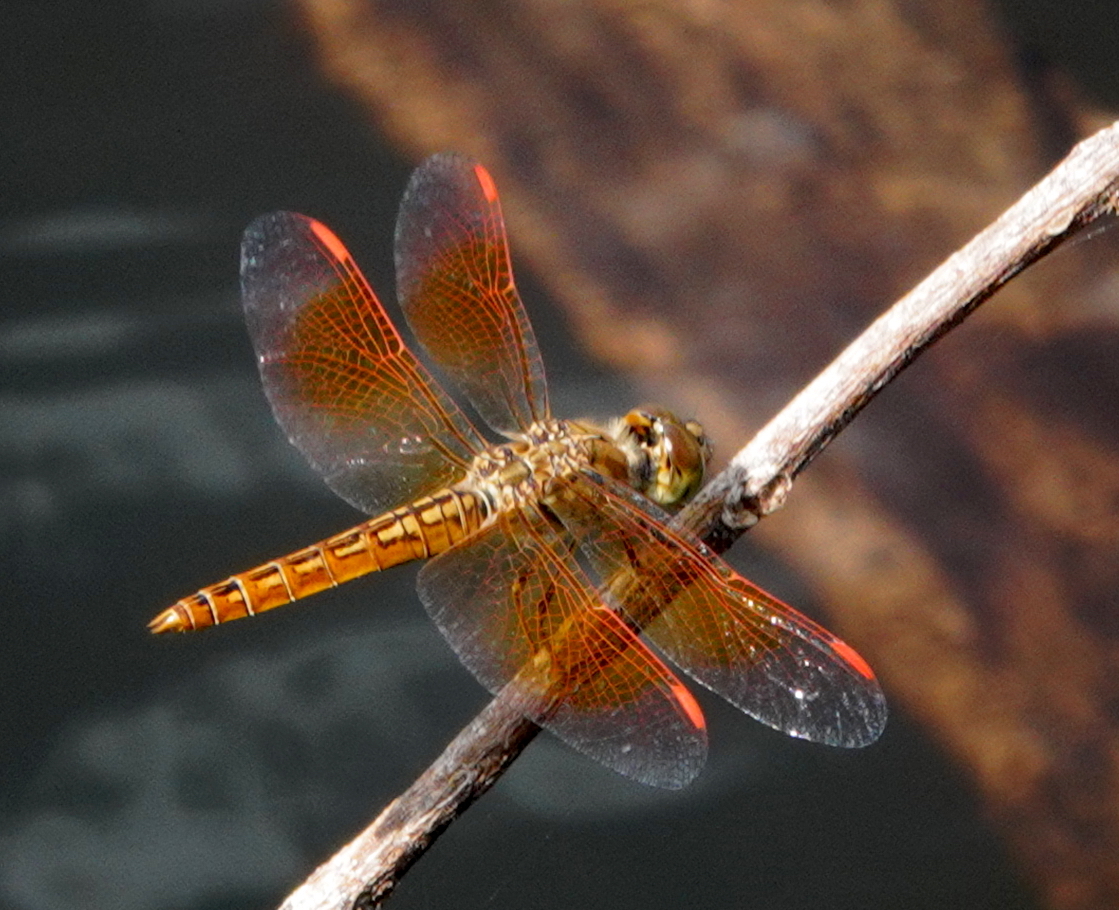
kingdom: Animalia
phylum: Arthropoda
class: Insecta
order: Odonata
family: Libellulidae
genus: Brachythemis
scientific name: Brachythemis contaminata
